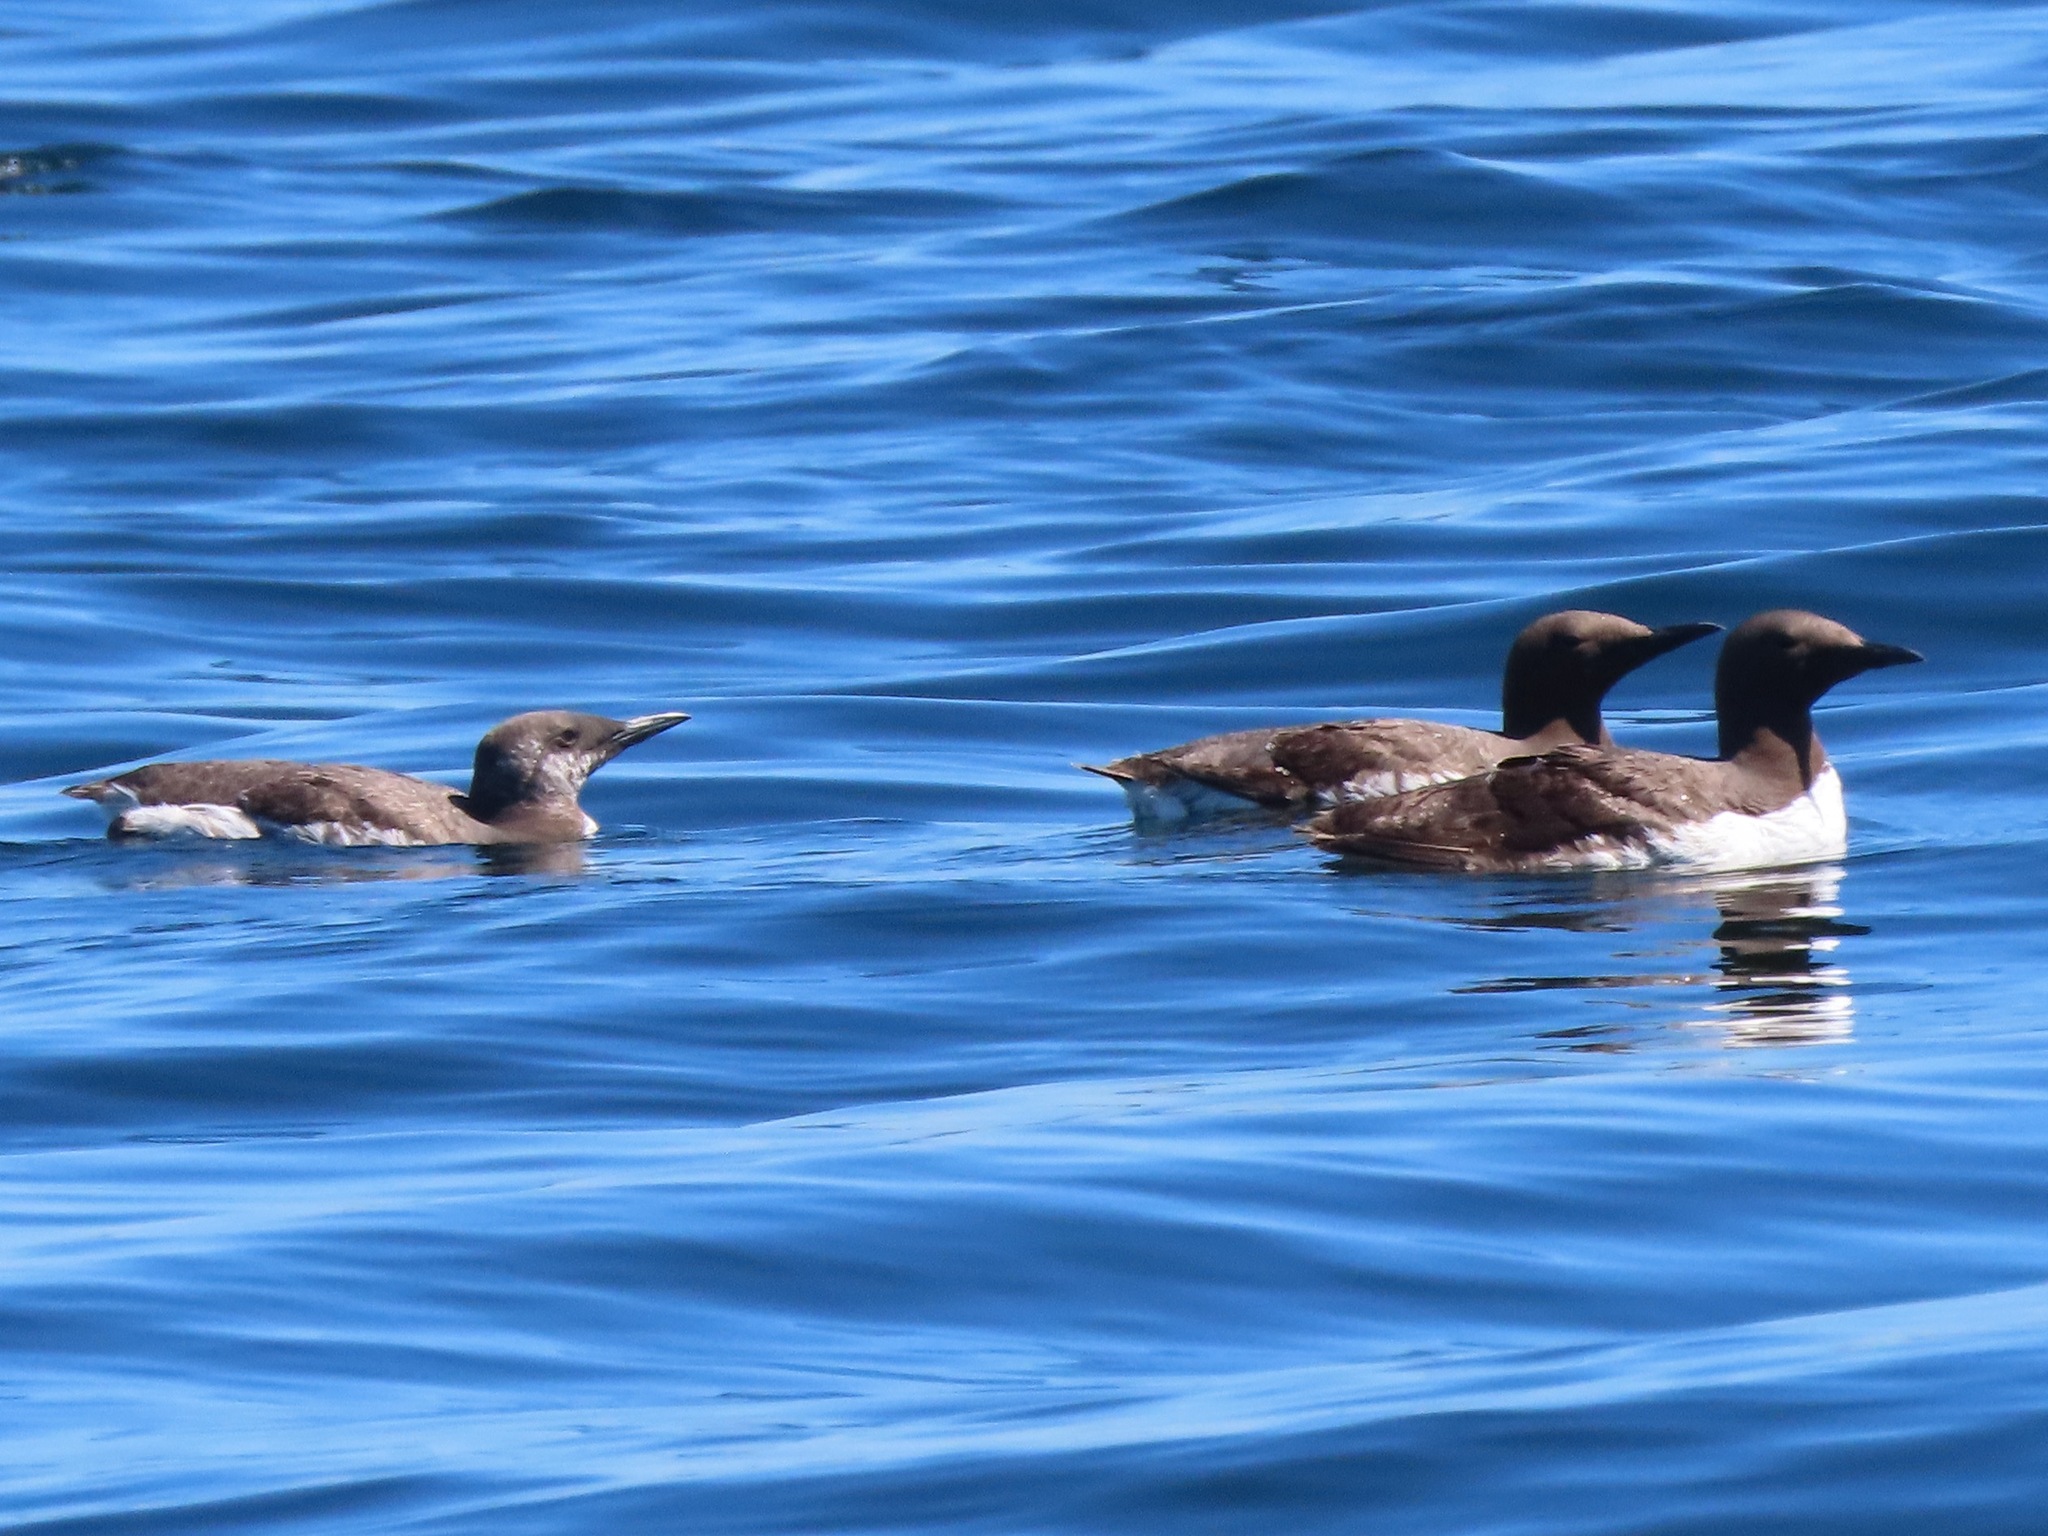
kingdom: Animalia
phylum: Chordata
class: Aves
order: Charadriiformes
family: Alcidae
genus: Uria
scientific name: Uria aalge
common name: Common murre
